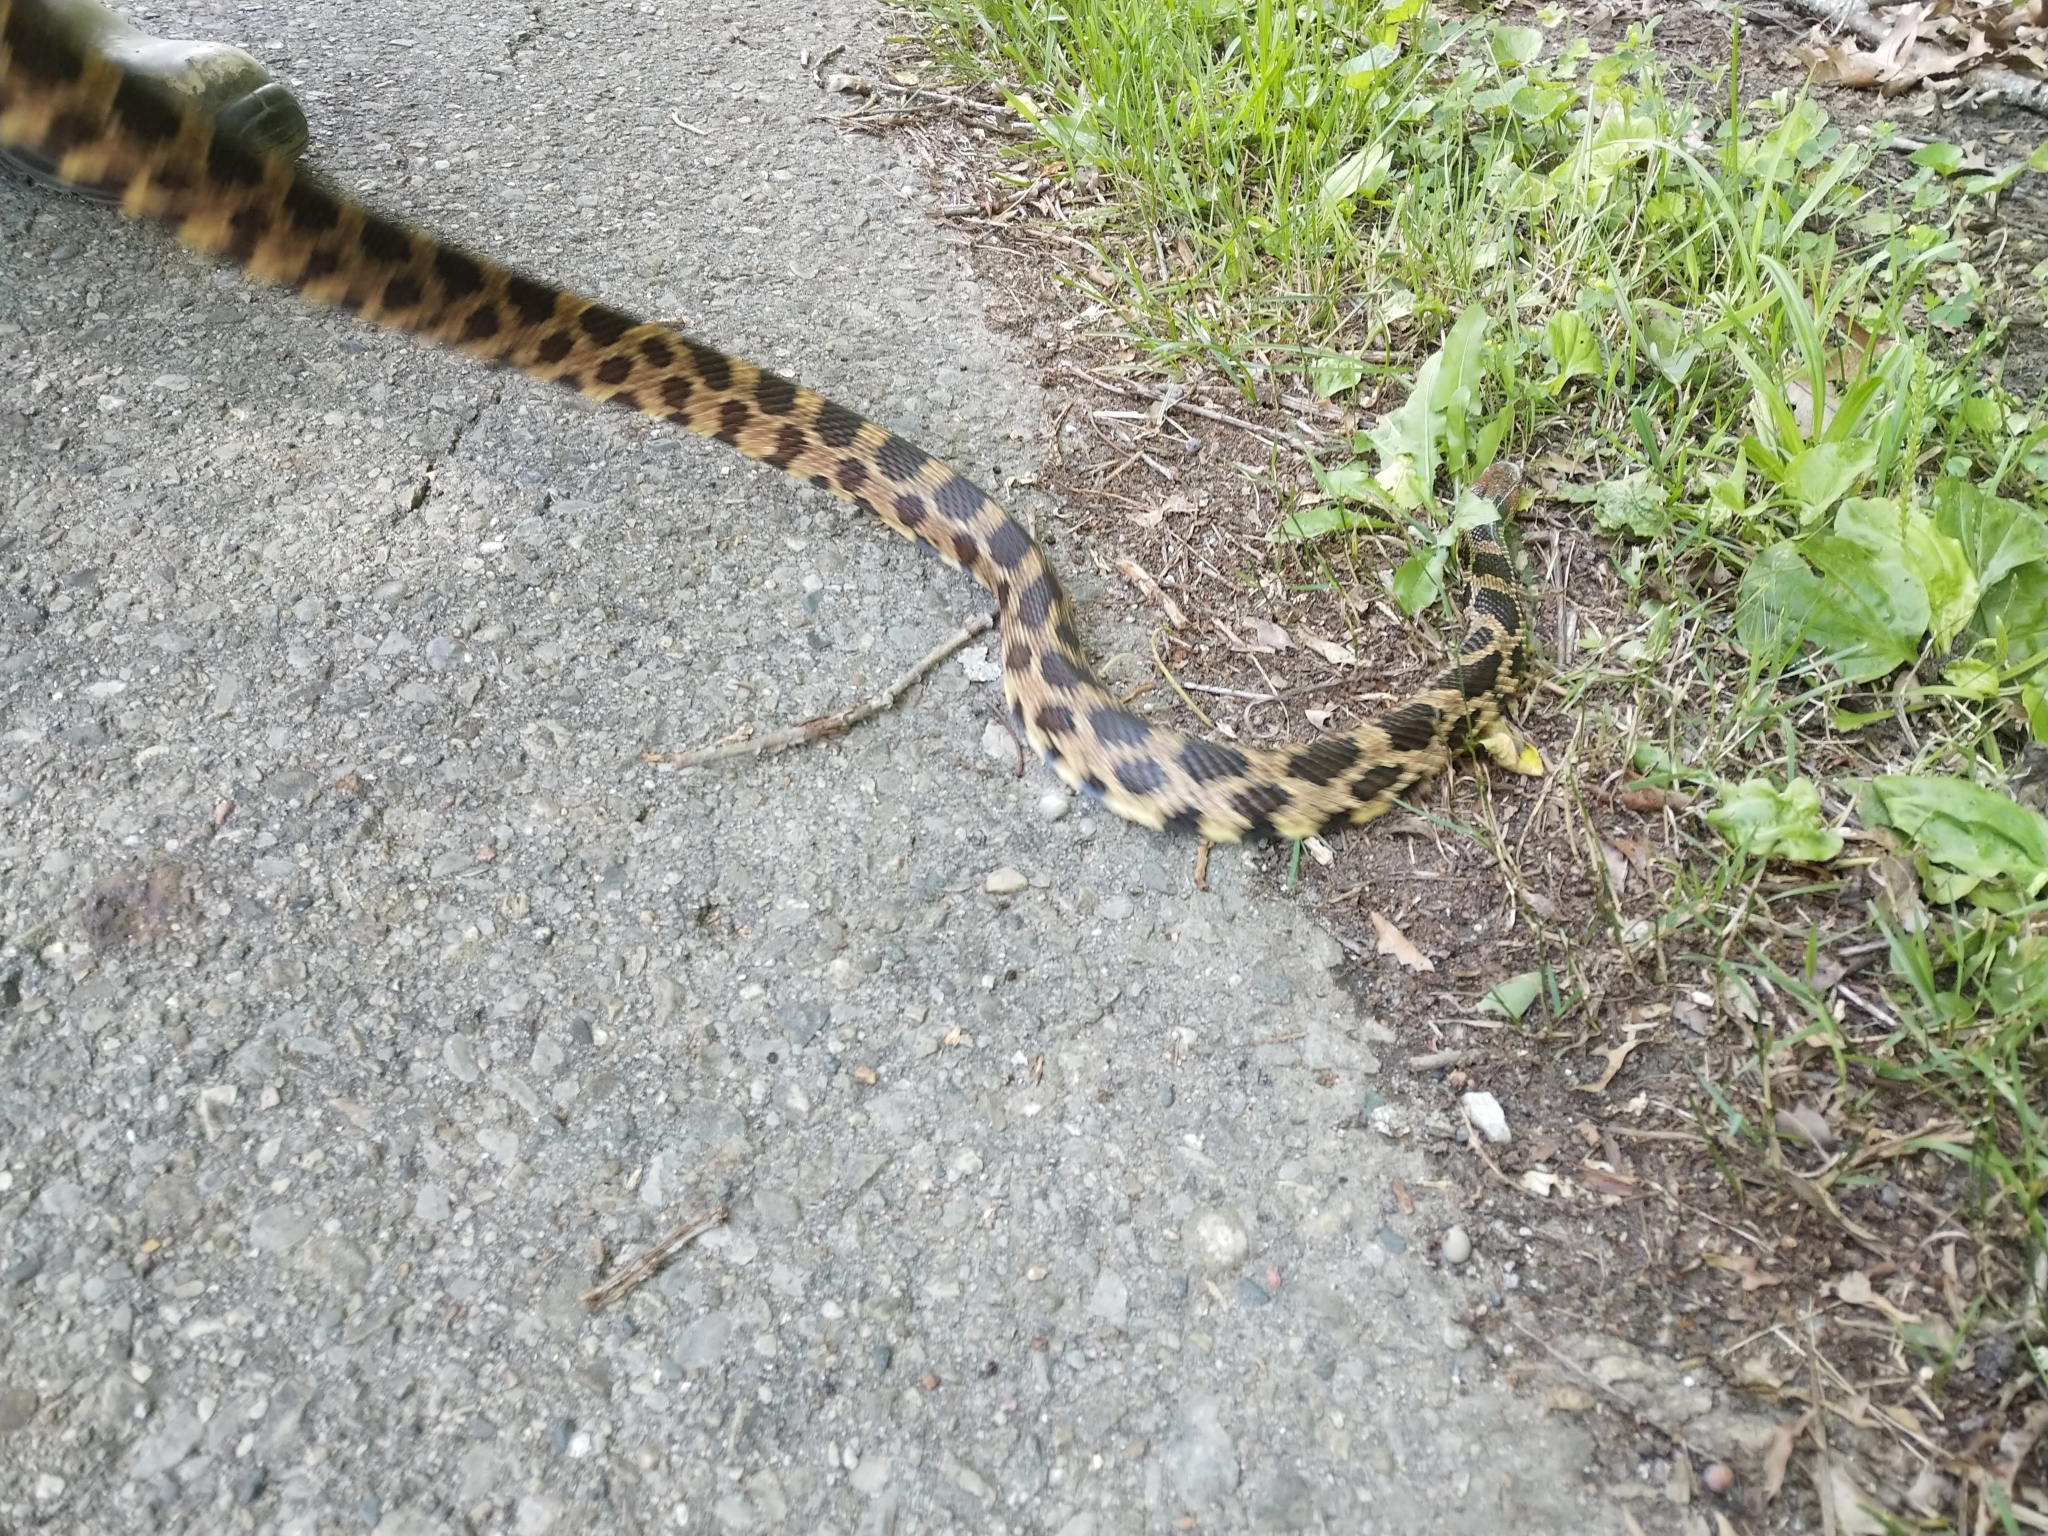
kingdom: Animalia
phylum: Chordata
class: Squamata
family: Colubridae
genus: Pantherophis
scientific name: Pantherophis vulpinus
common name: Eastern fox snake
